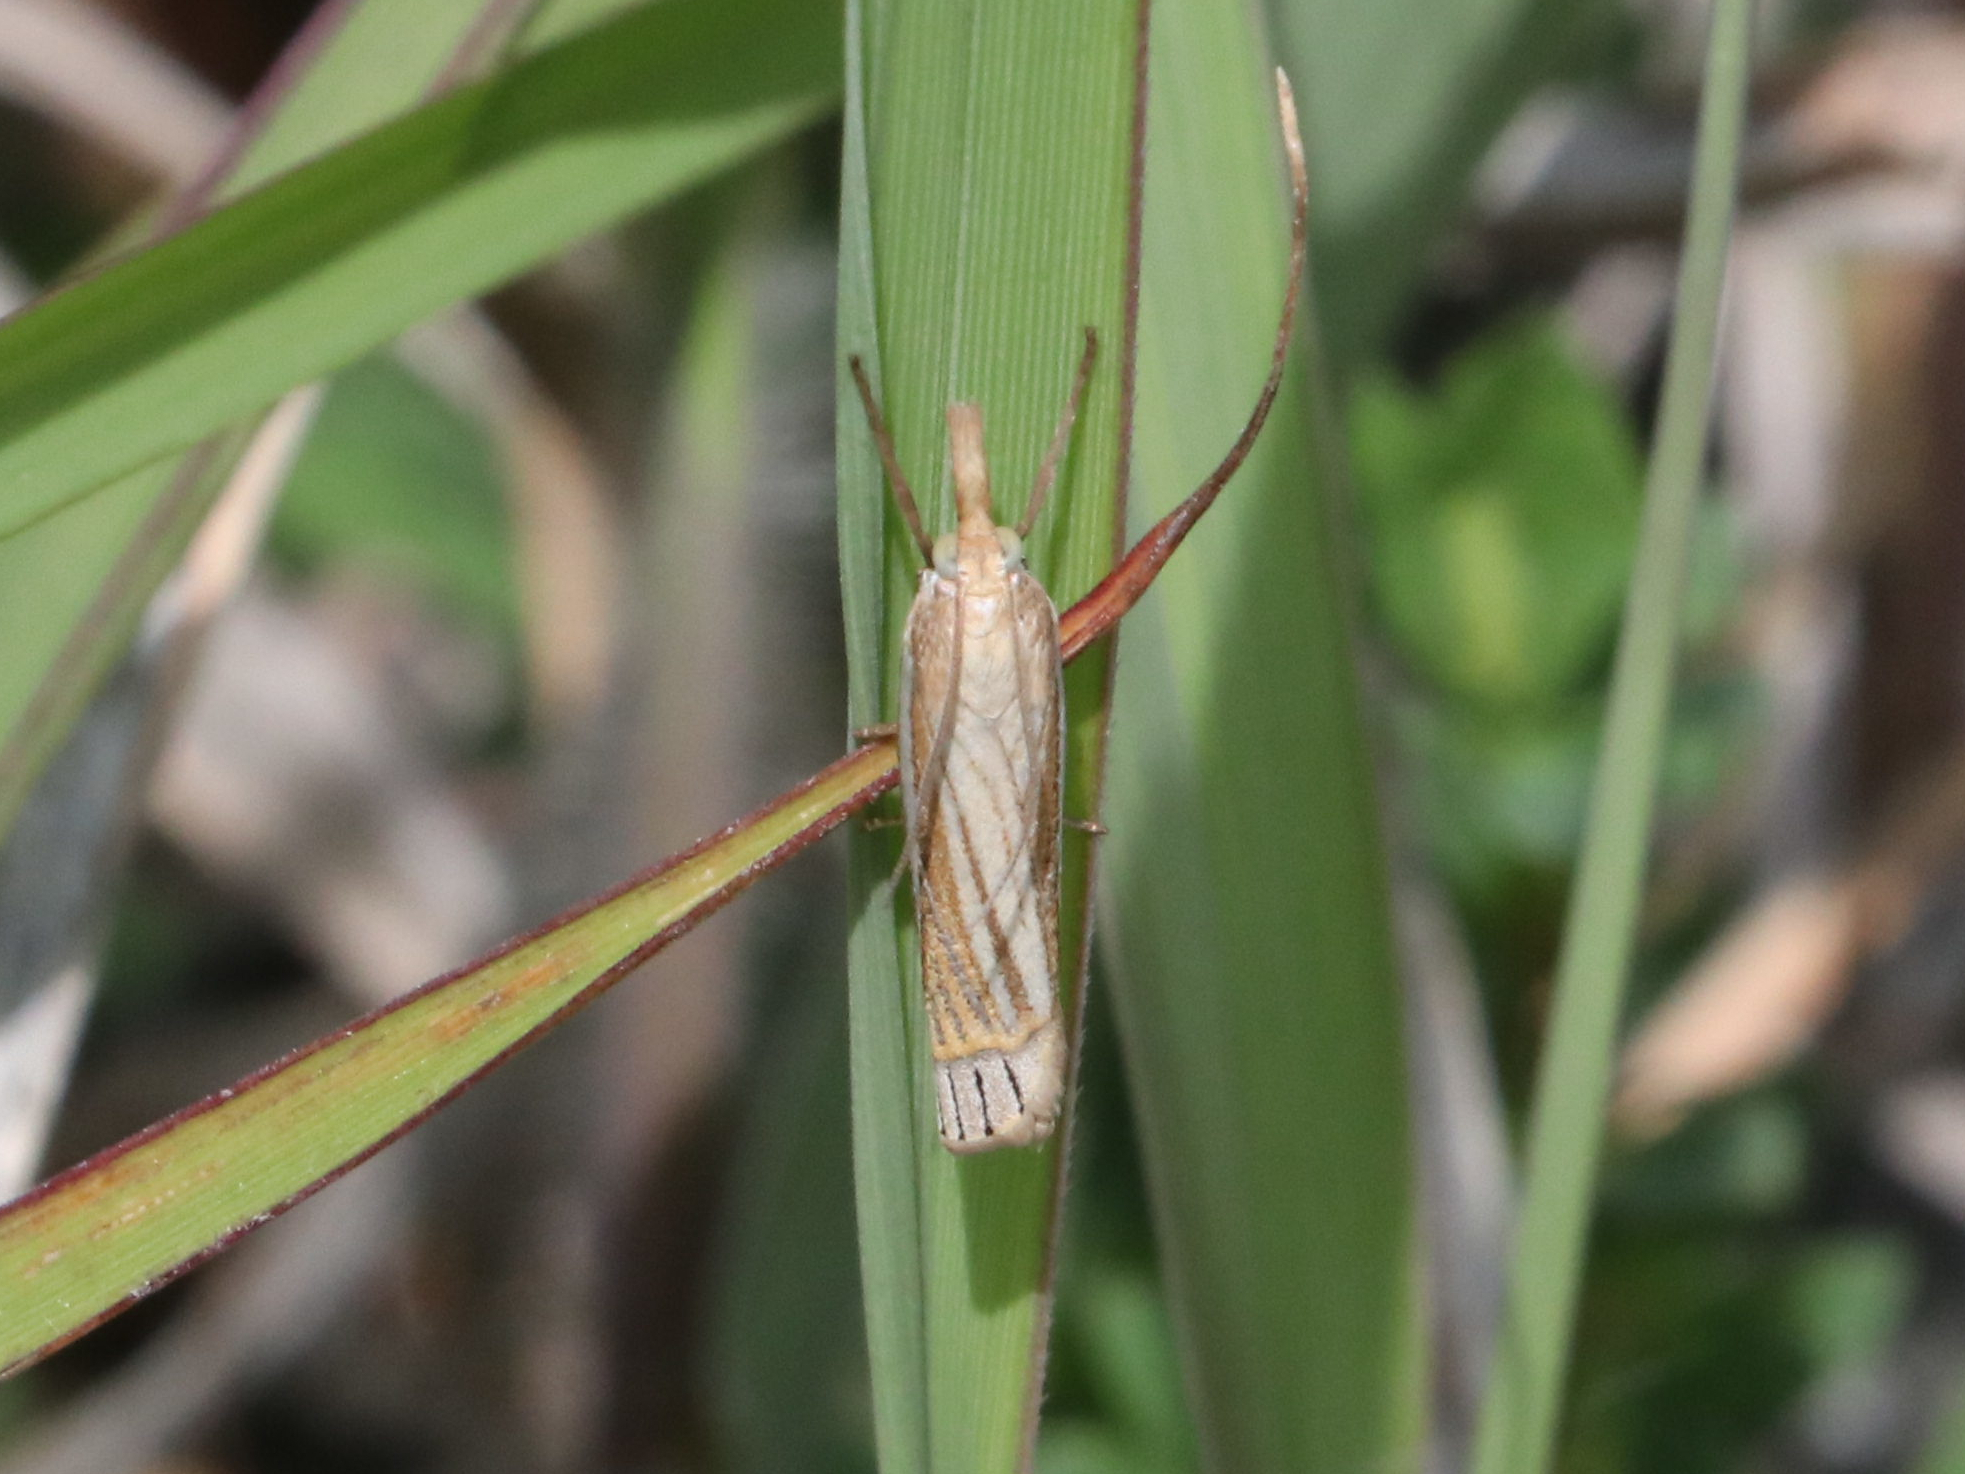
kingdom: Animalia
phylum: Arthropoda
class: Insecta
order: Lepidoptera
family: Crambidae
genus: Crambus
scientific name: Crambus laqueatellus
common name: Eastern grass-veneer
